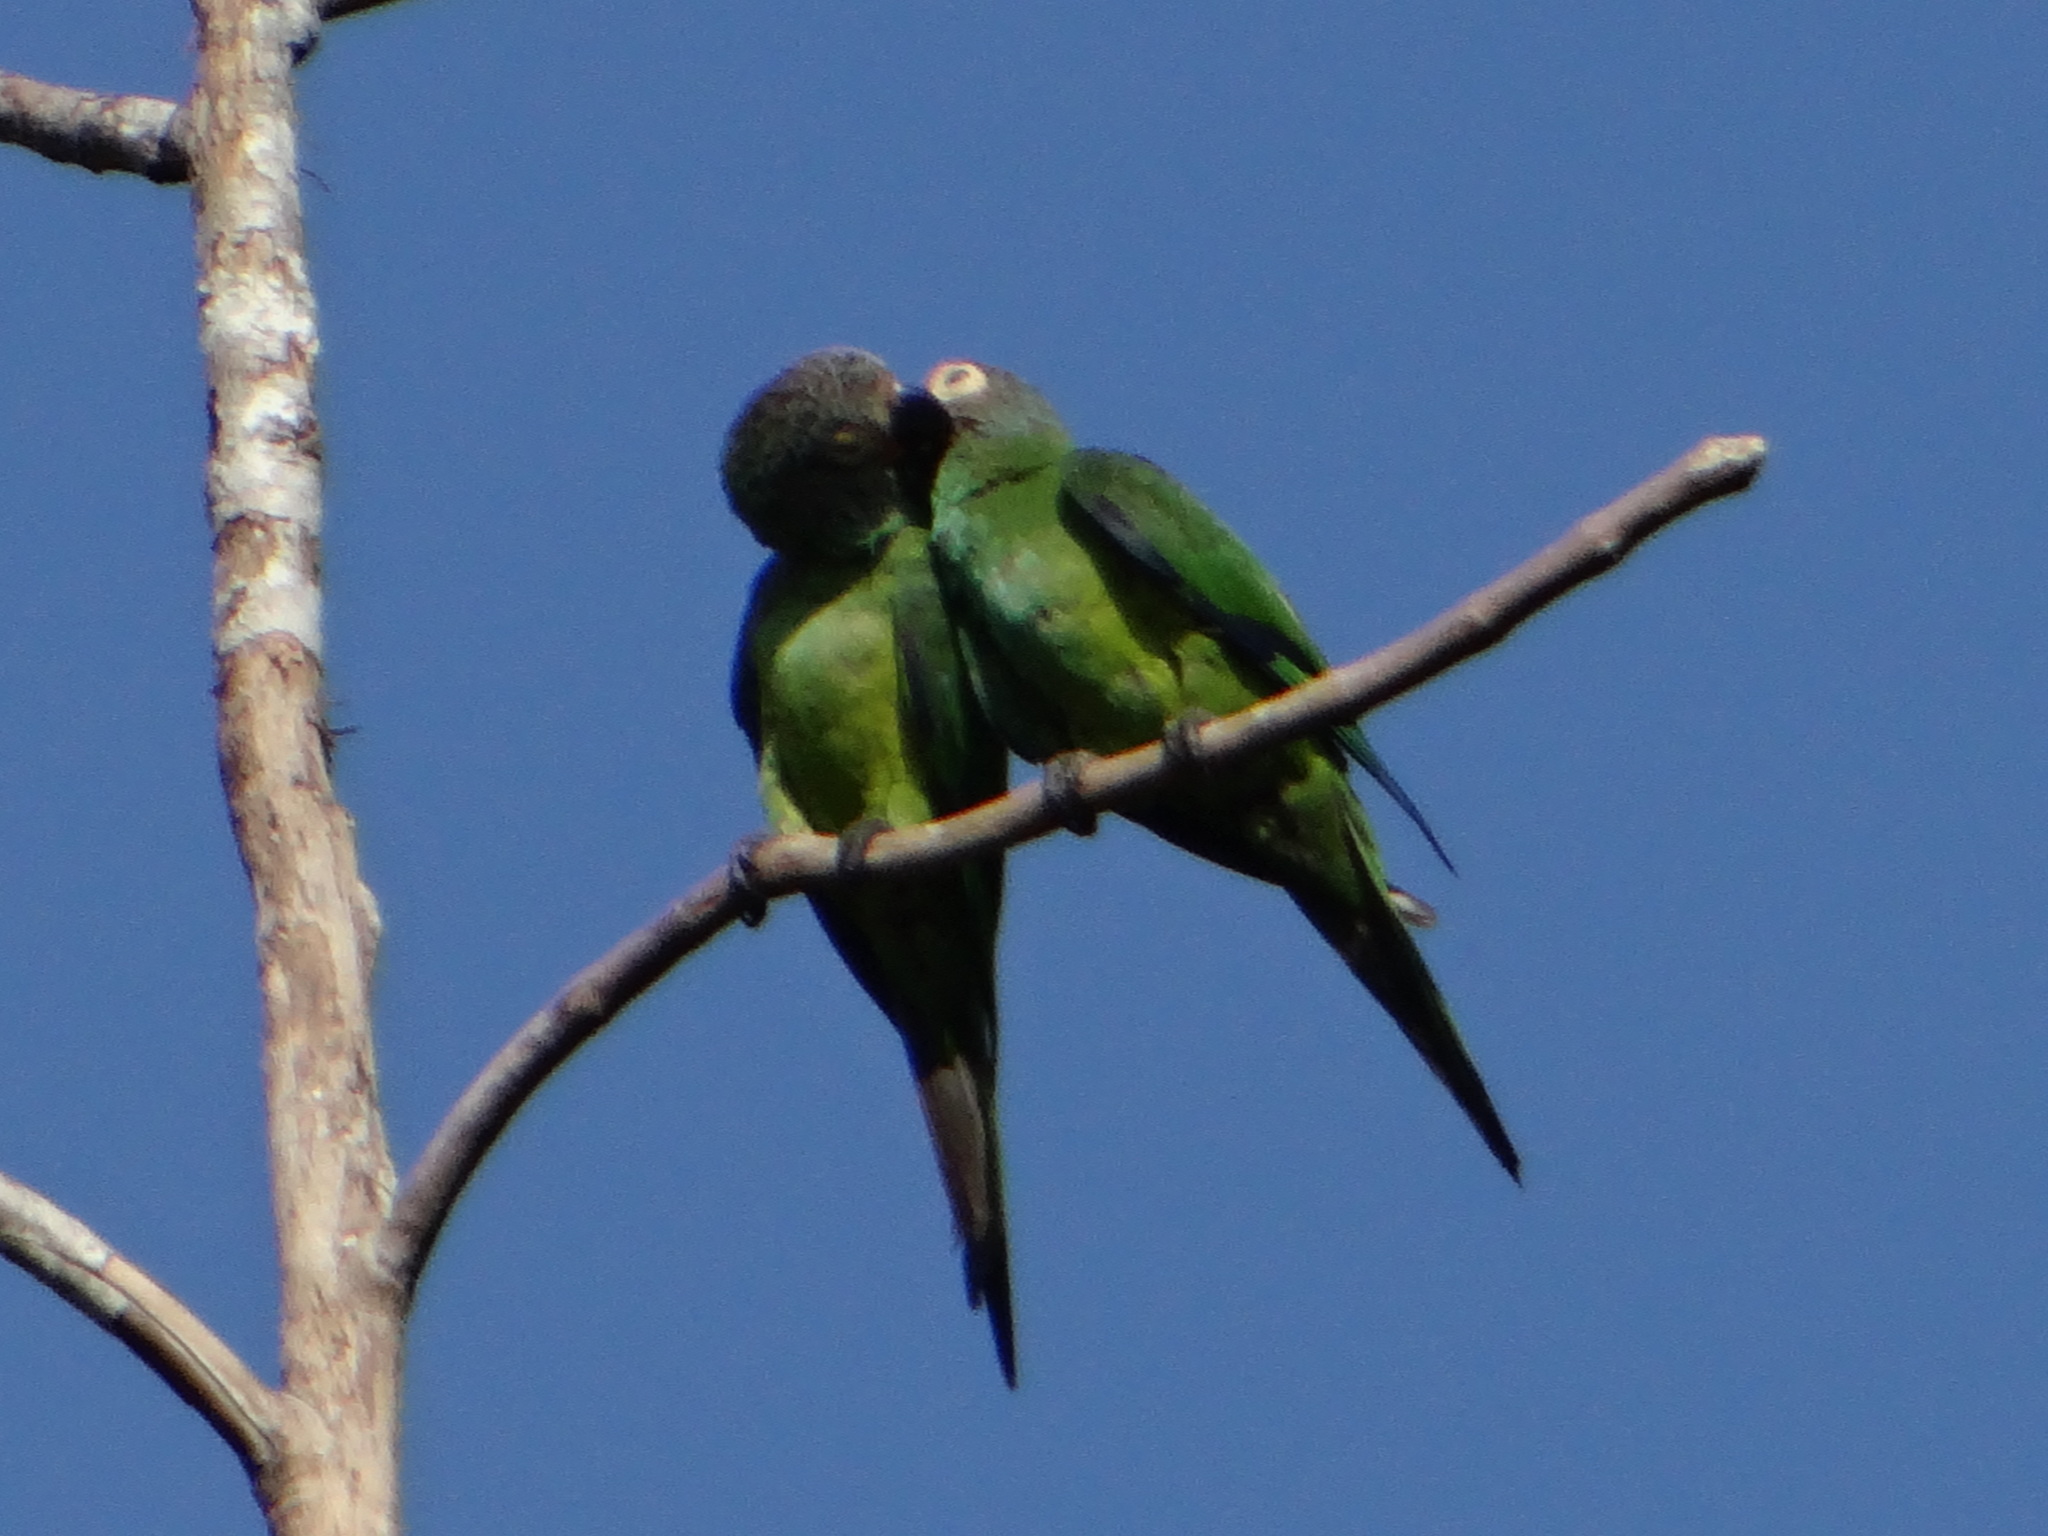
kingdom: Animalia
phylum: Chordata
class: Aves
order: Psittaciformes
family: Psittacidae
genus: Aratinga
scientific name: Aratinga weddellii
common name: Dusky-headed parakeet
